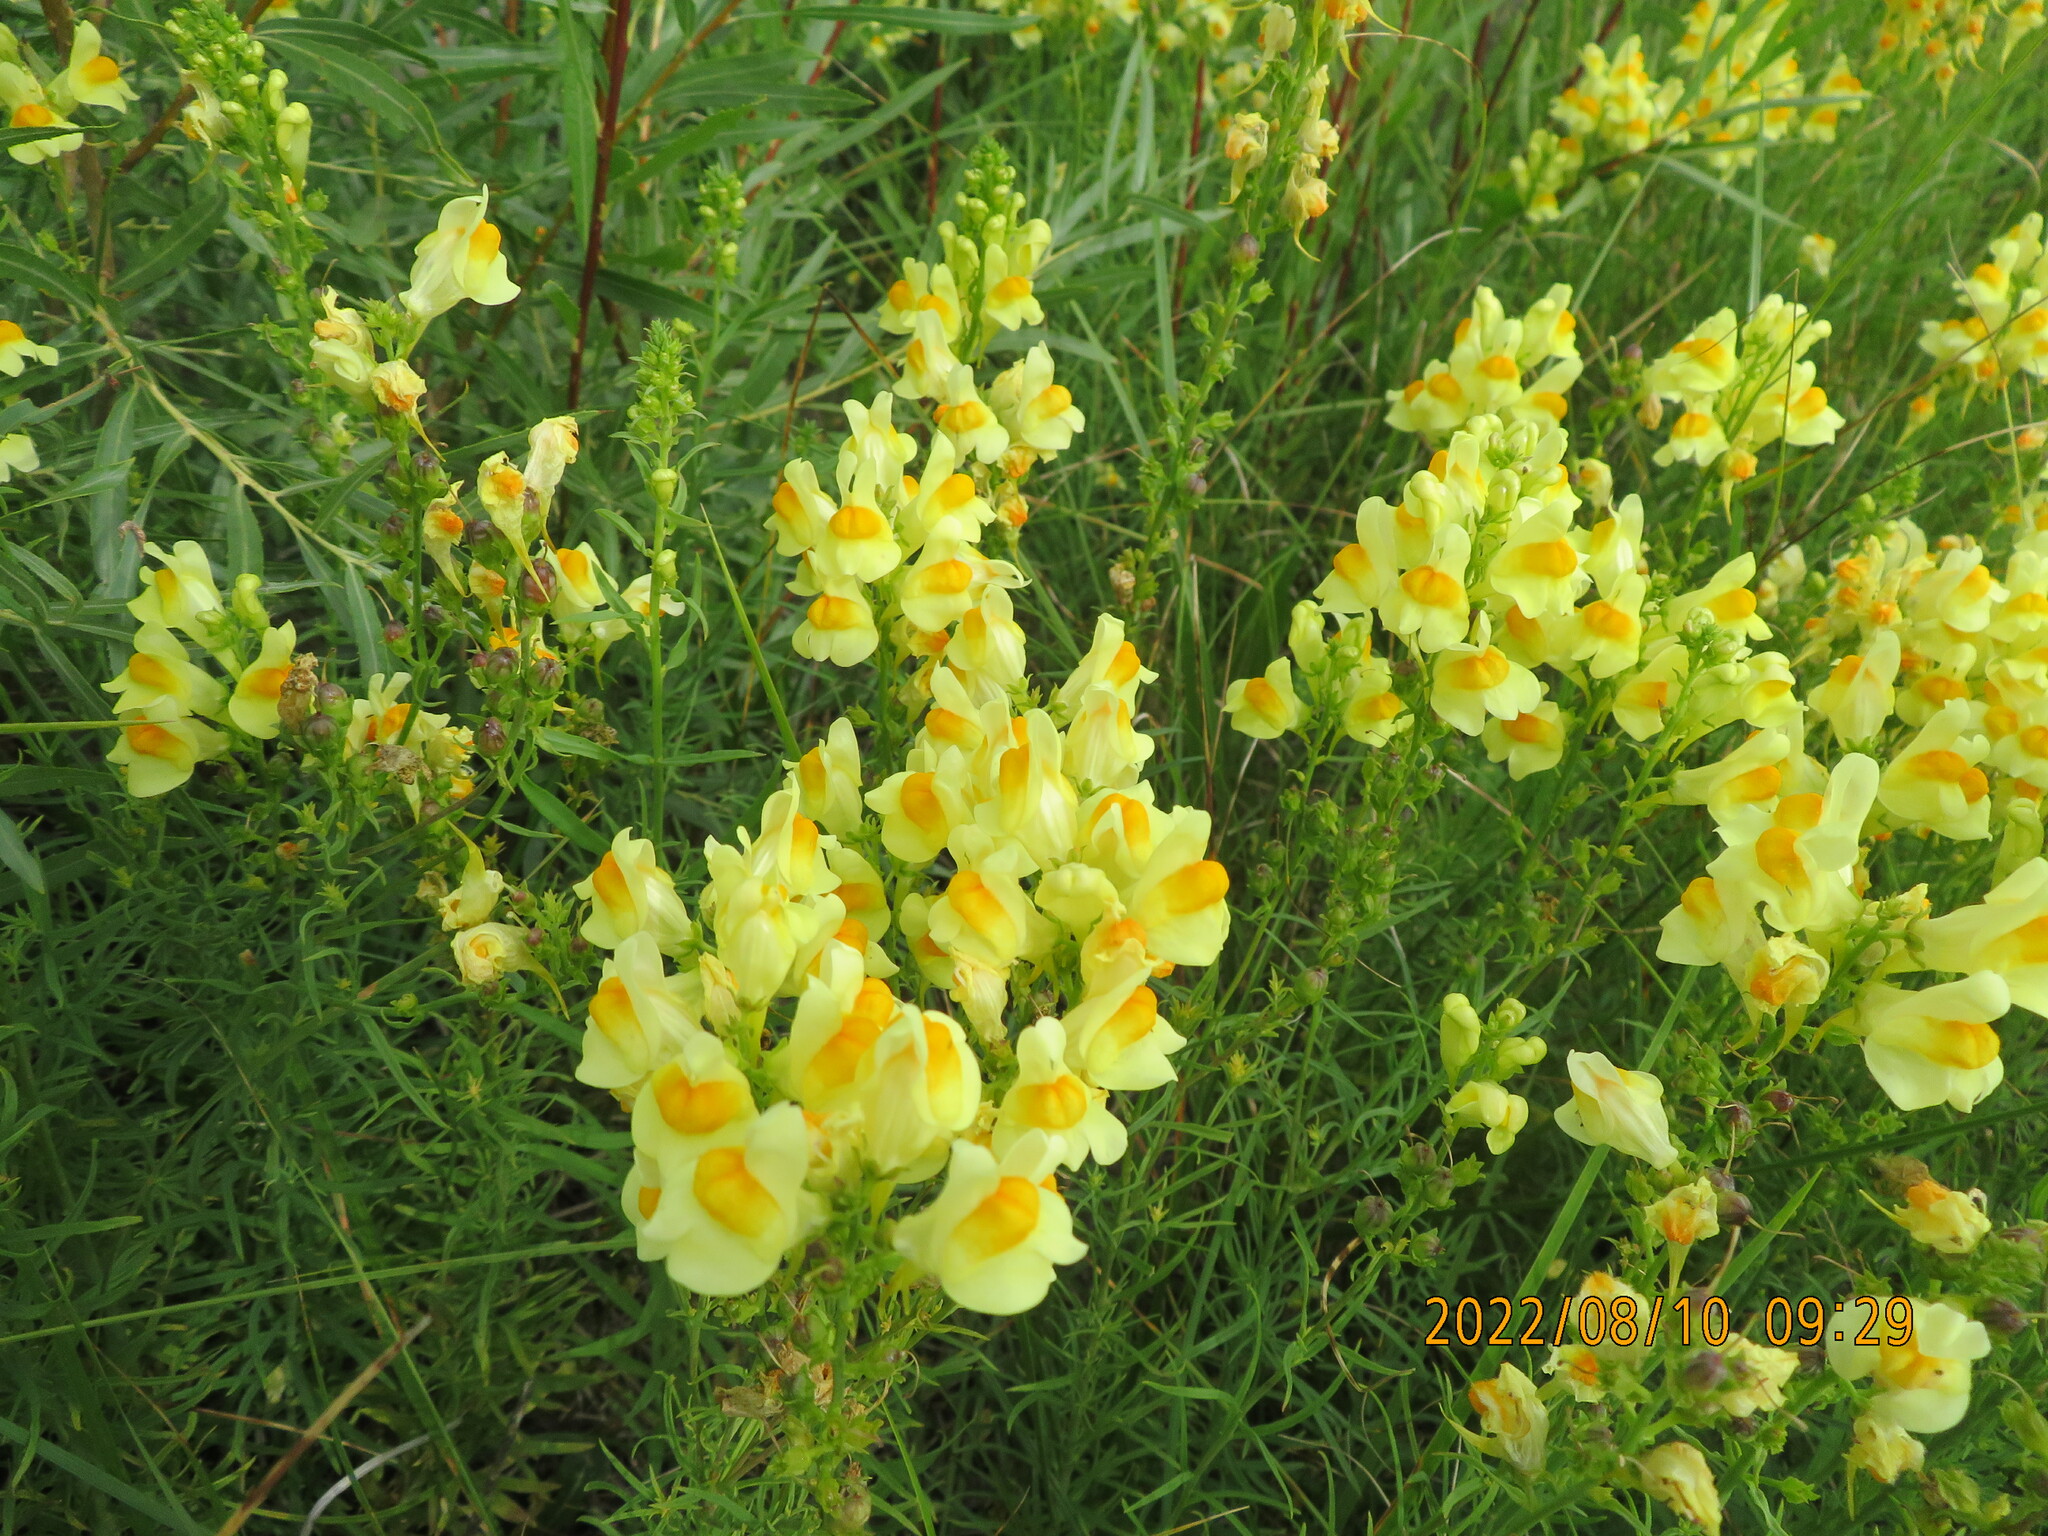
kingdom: Plantae
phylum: Tracheophyta
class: Magnoliopsida
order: Lamiales
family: Plantaginaceae
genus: Linaria
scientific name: Linaria vulgaris
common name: Butter and eggs
